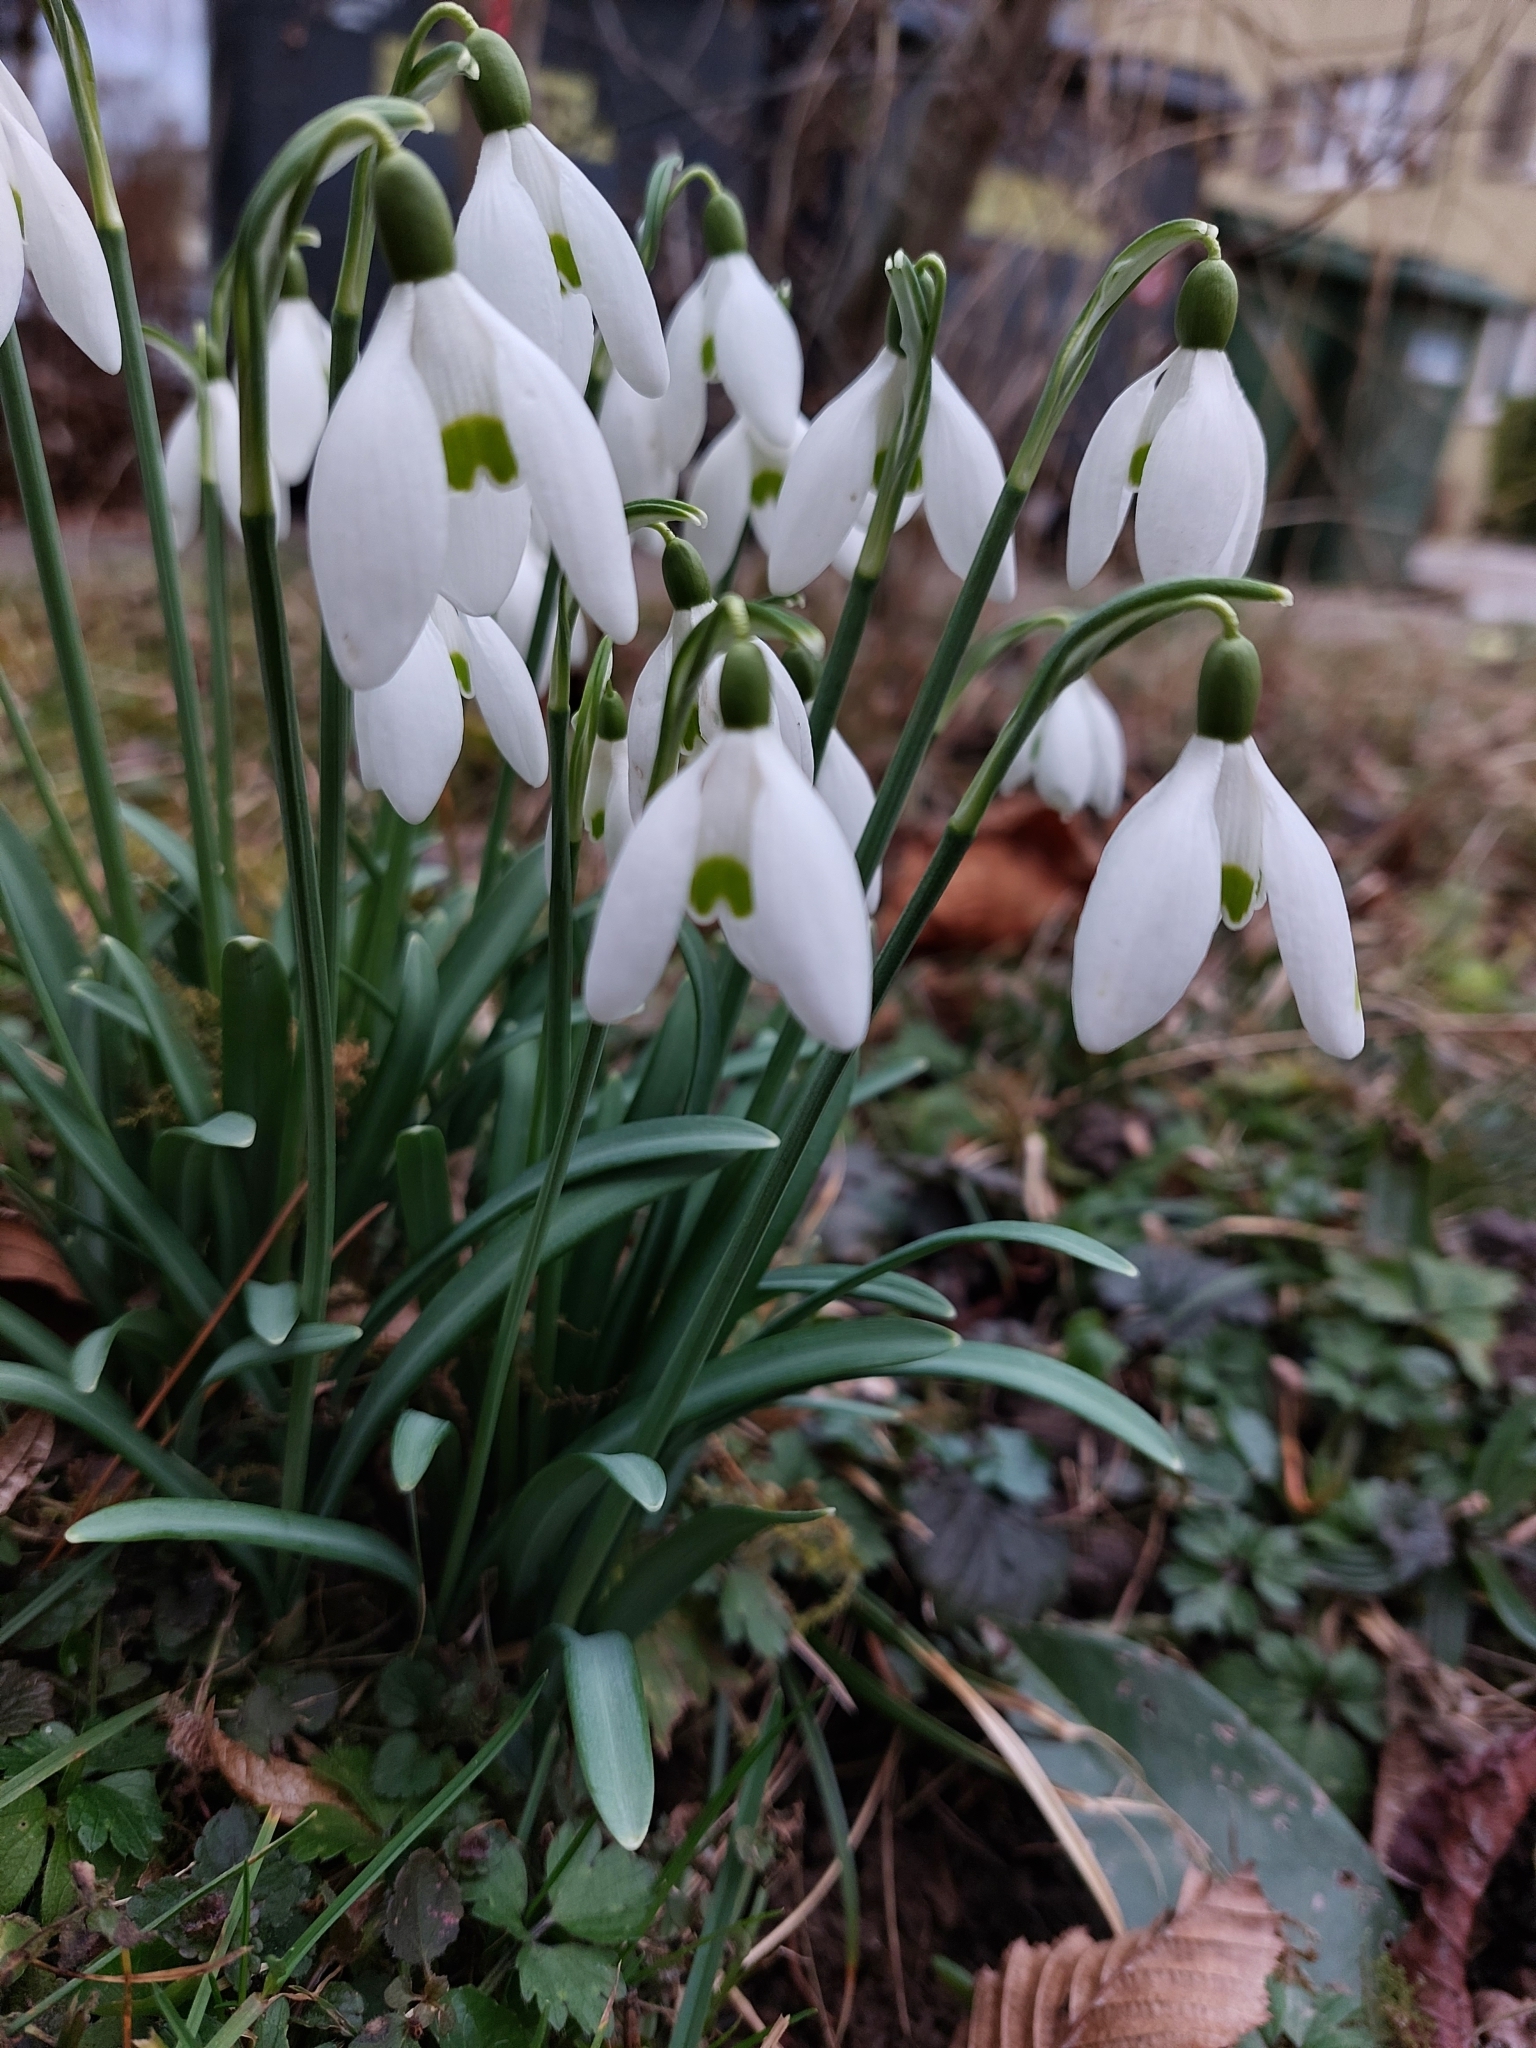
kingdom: Plantae
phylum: Tracheophyta
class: Liliopsida
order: Asparagales
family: Amaryllidaceae
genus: Galanthus
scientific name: Galanthus nivalis
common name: Snowdrop
